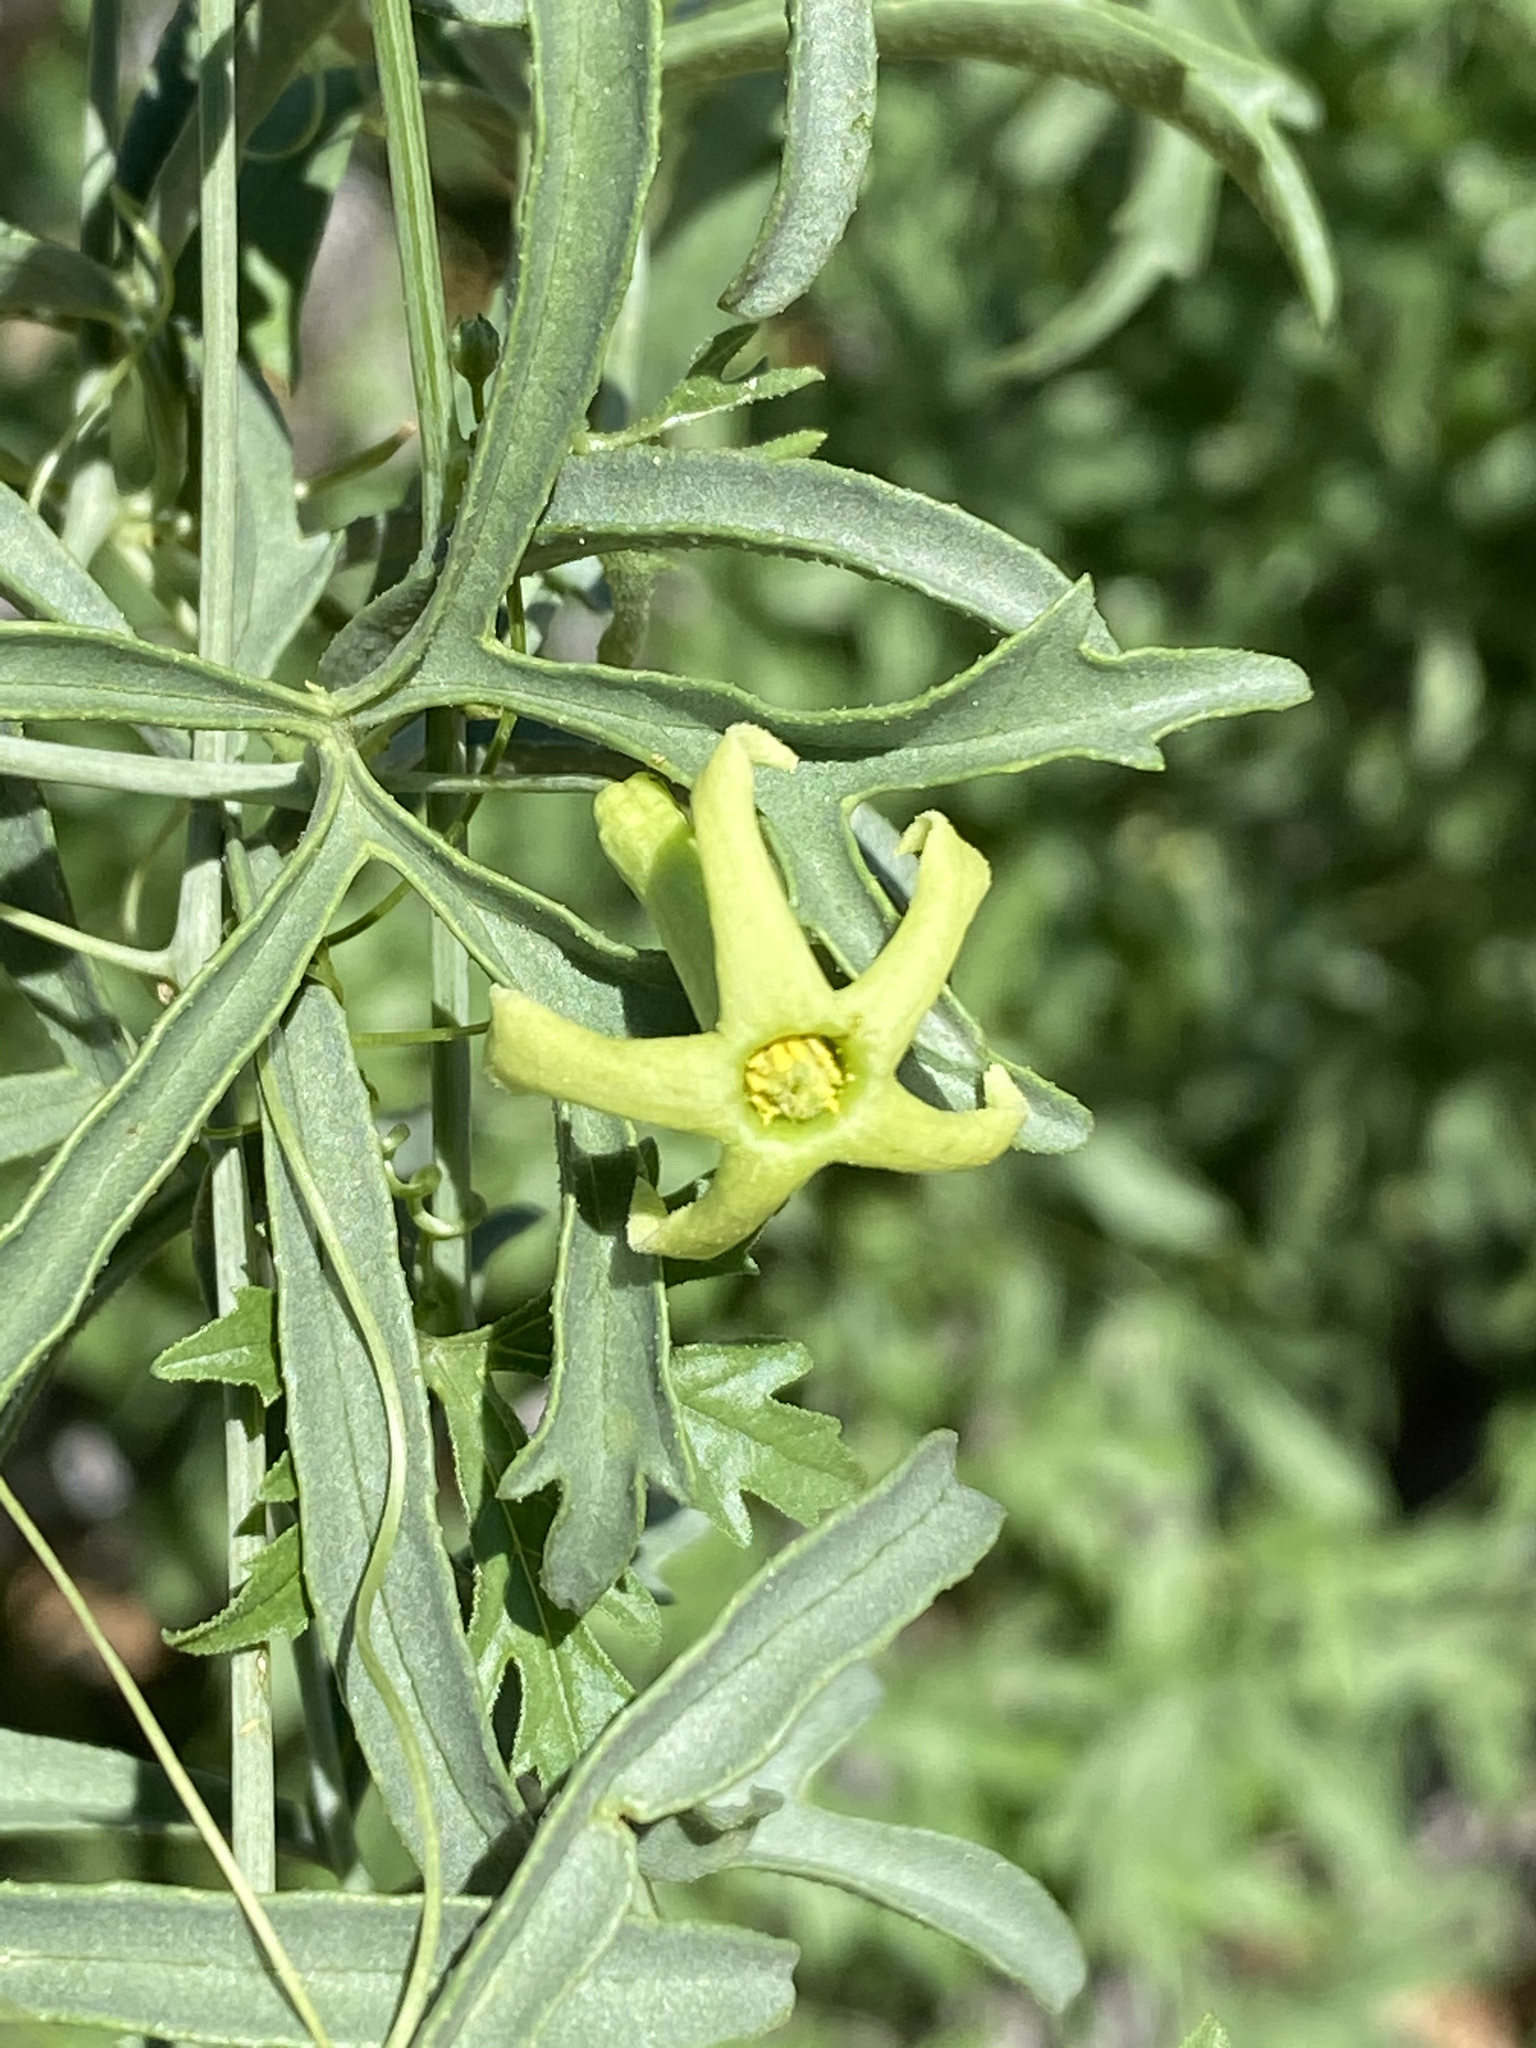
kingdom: Plantae
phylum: Tracheophyta
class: Magnoliopsida
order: Cucurbitales
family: Cucurbitaceae
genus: Trochomeria
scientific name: Trochomeria debilis
